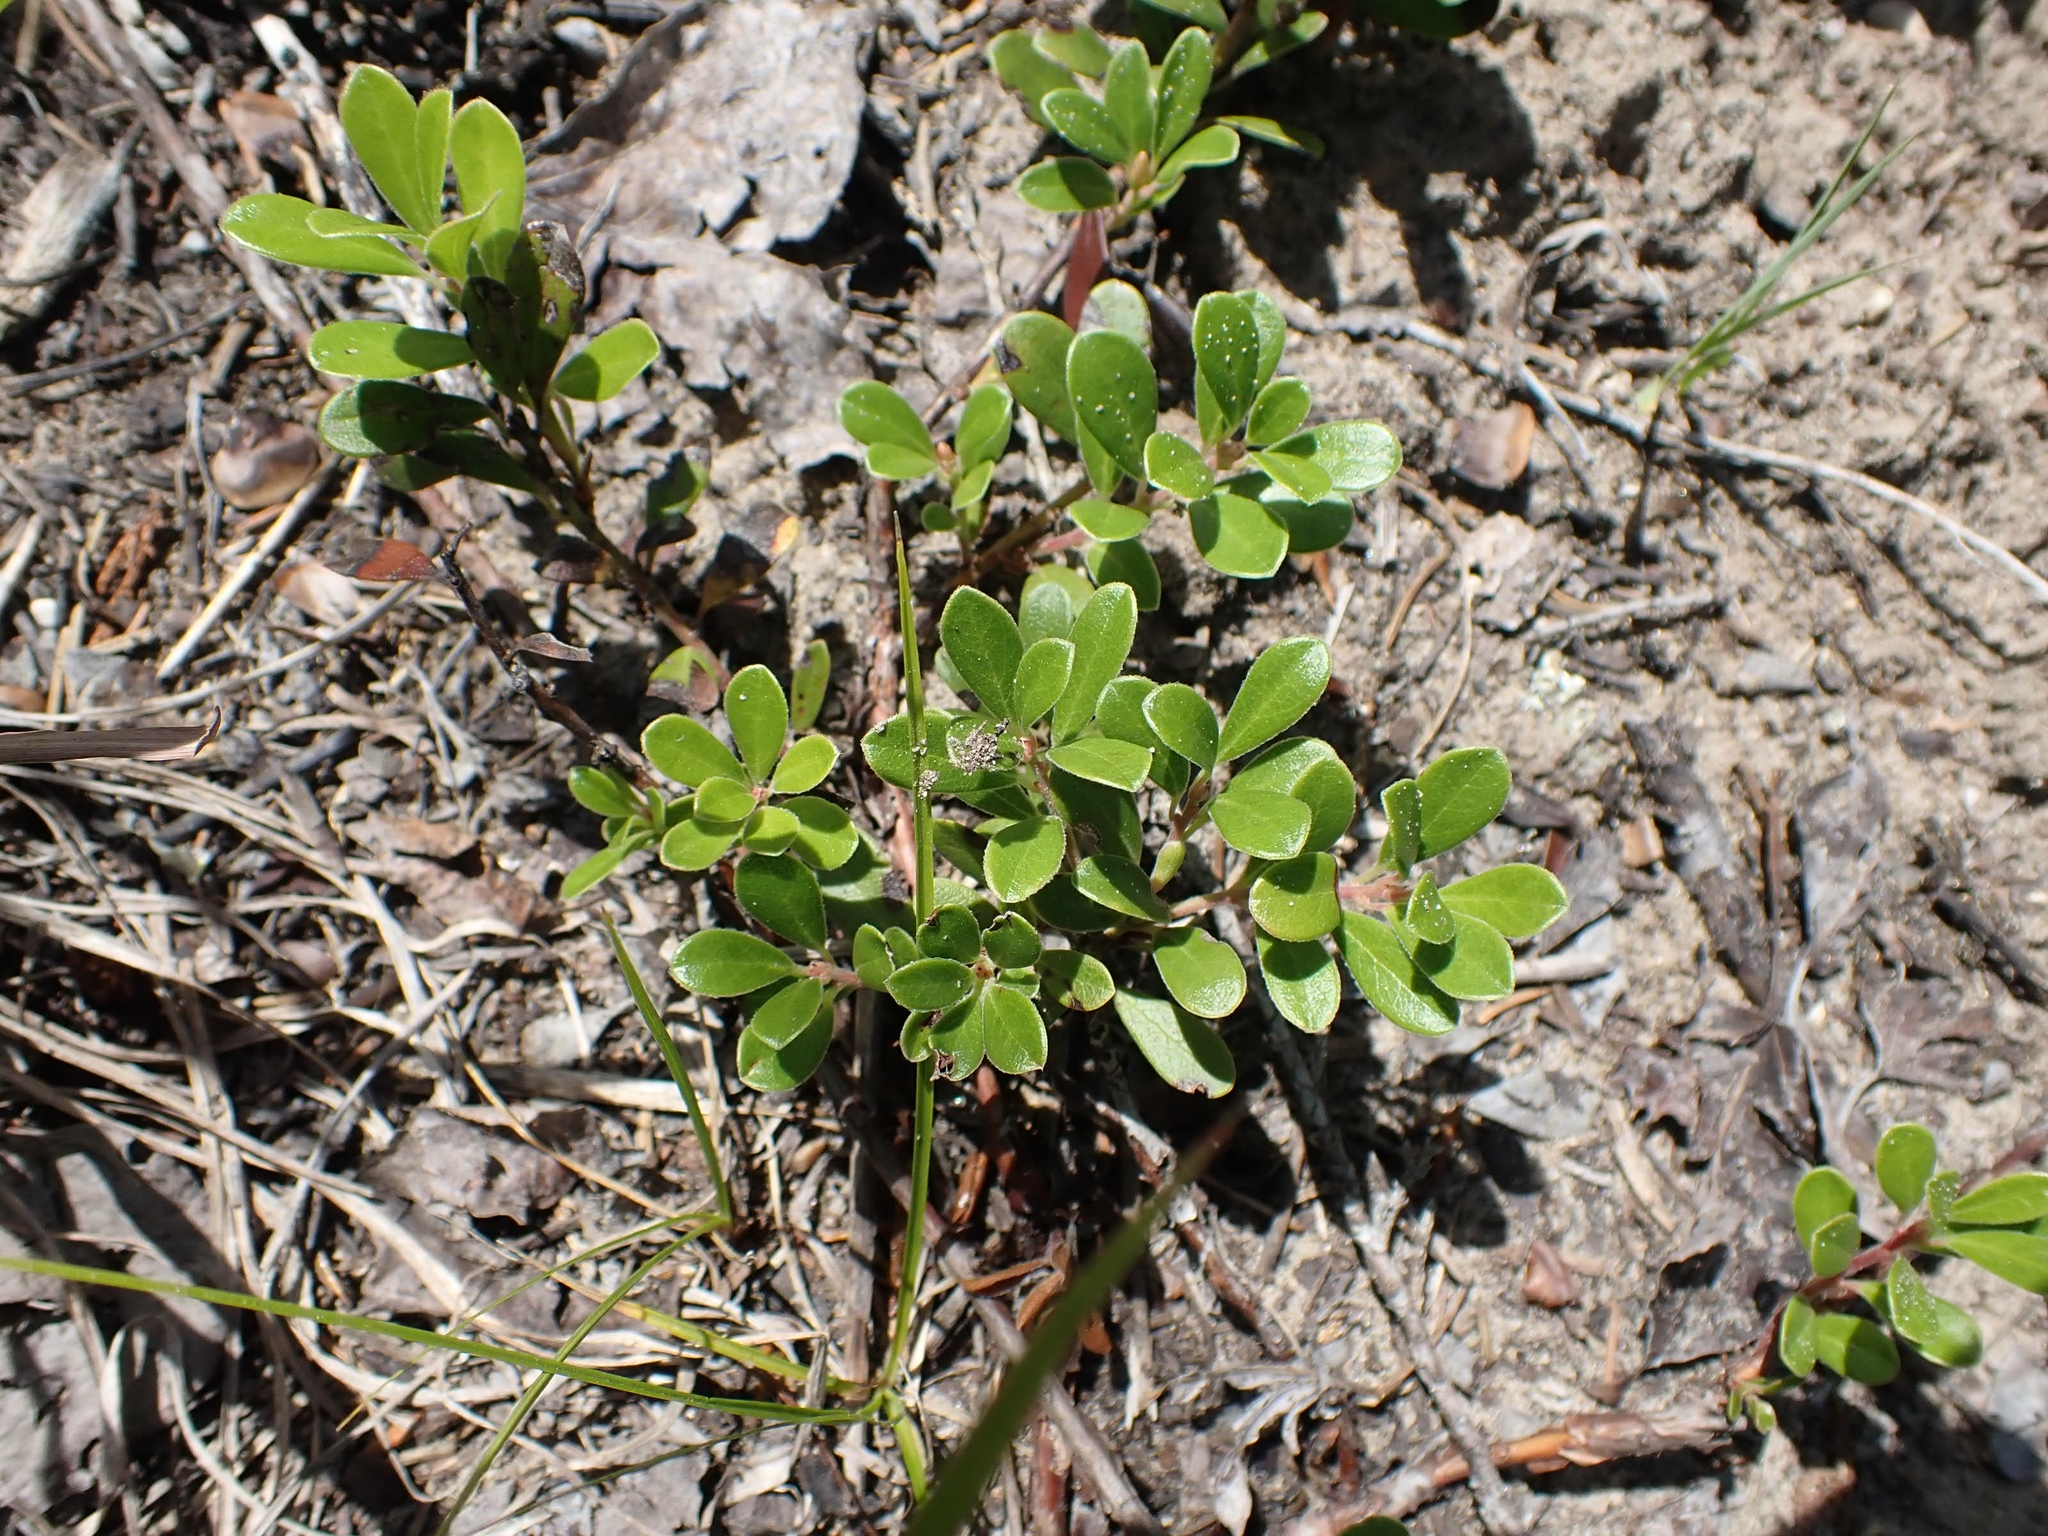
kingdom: Plantae
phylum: Tracheophyta
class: Magnoliopsida
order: Ericales
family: Ericaceae
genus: Arctostaphylos
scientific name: Arctostaphylos uva-ursi
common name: Bearberry
